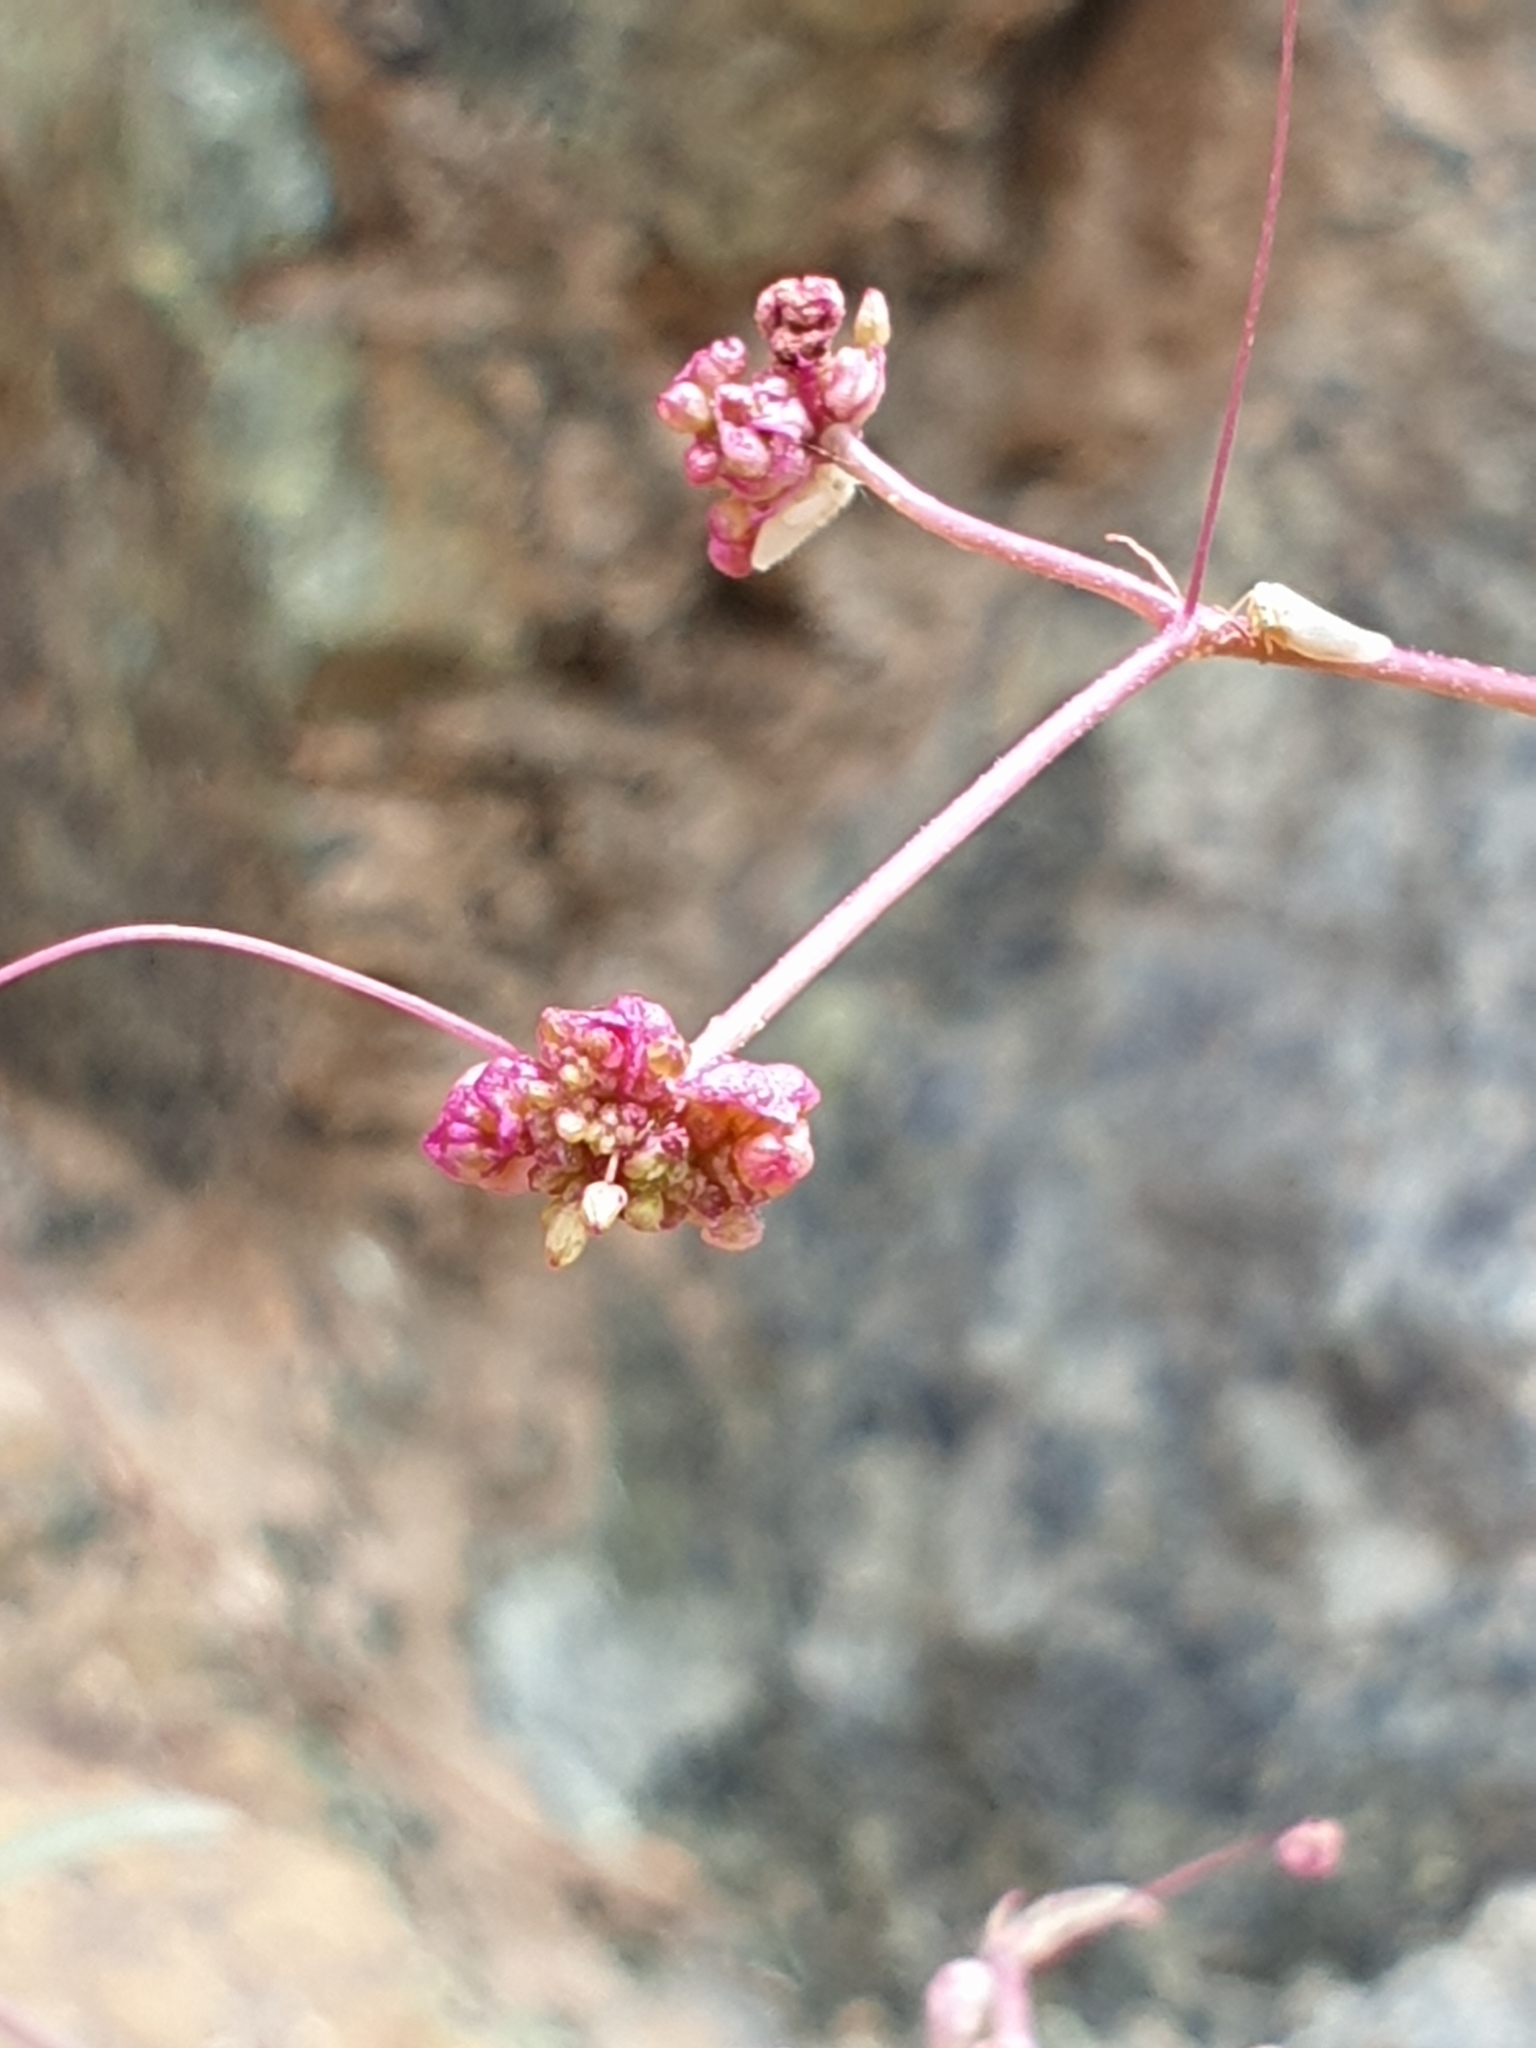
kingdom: Plantae
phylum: Tracheophyta
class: Magnoliopsida
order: Caryophyllales
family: Nyctaginaceae
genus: Boerhavia
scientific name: Boerhavia elegans
